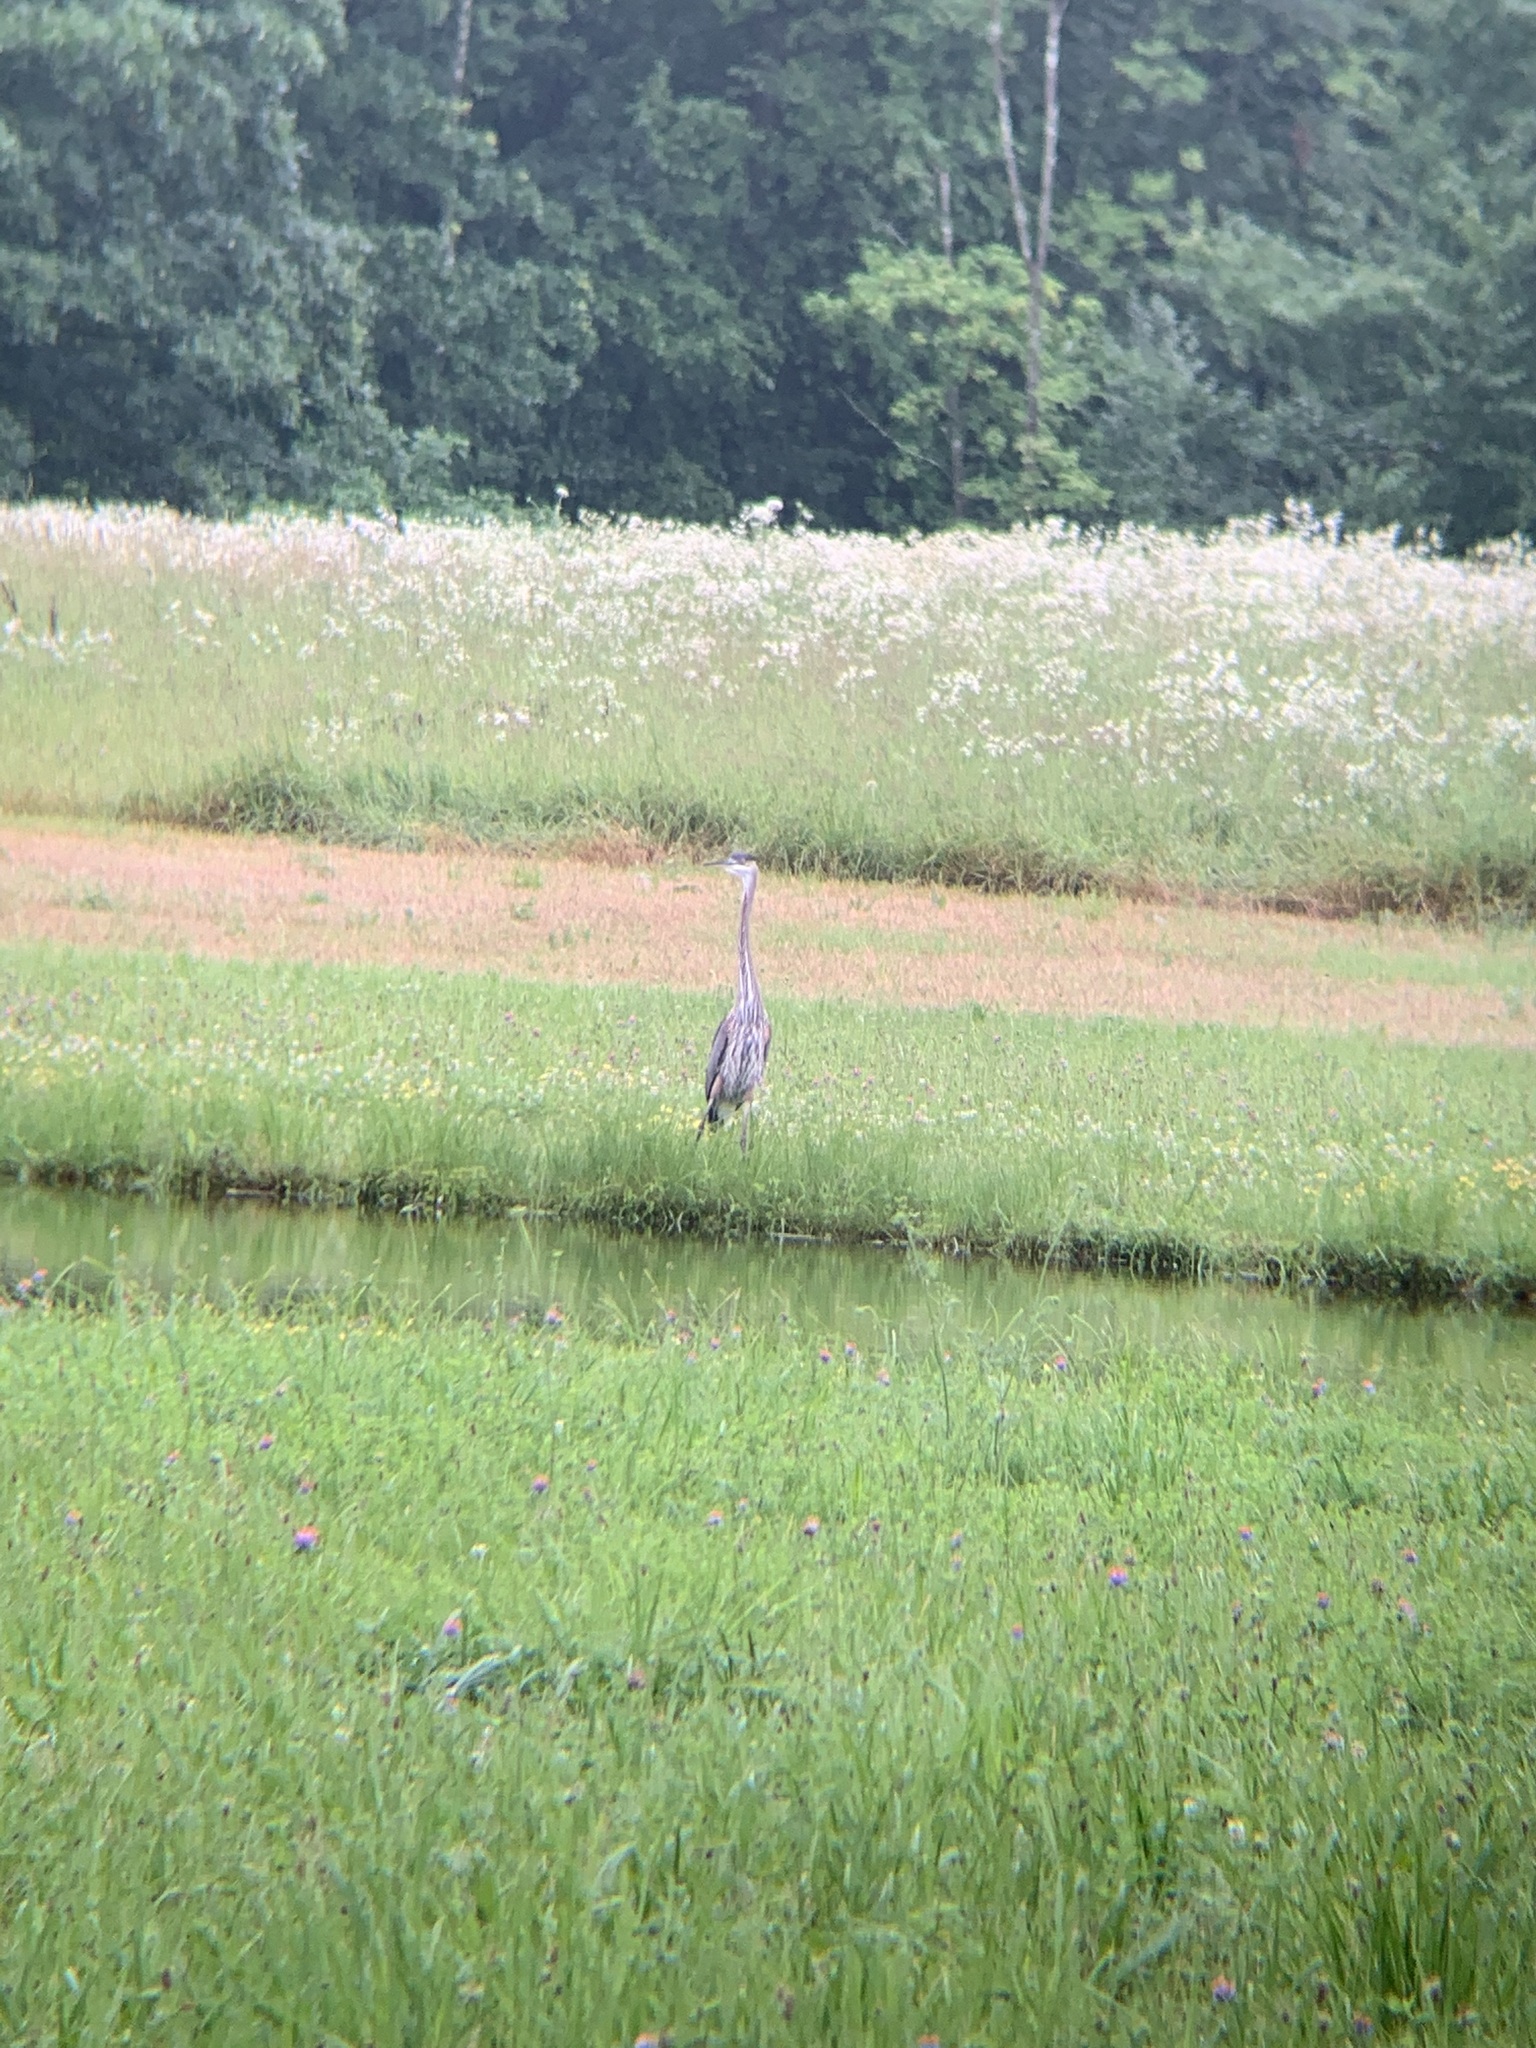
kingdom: Animalia
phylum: Chordata
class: Aves
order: Pelecaniformes
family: Ardeidae
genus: Ardea
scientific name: Ardea herodias
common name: Great blue heron
